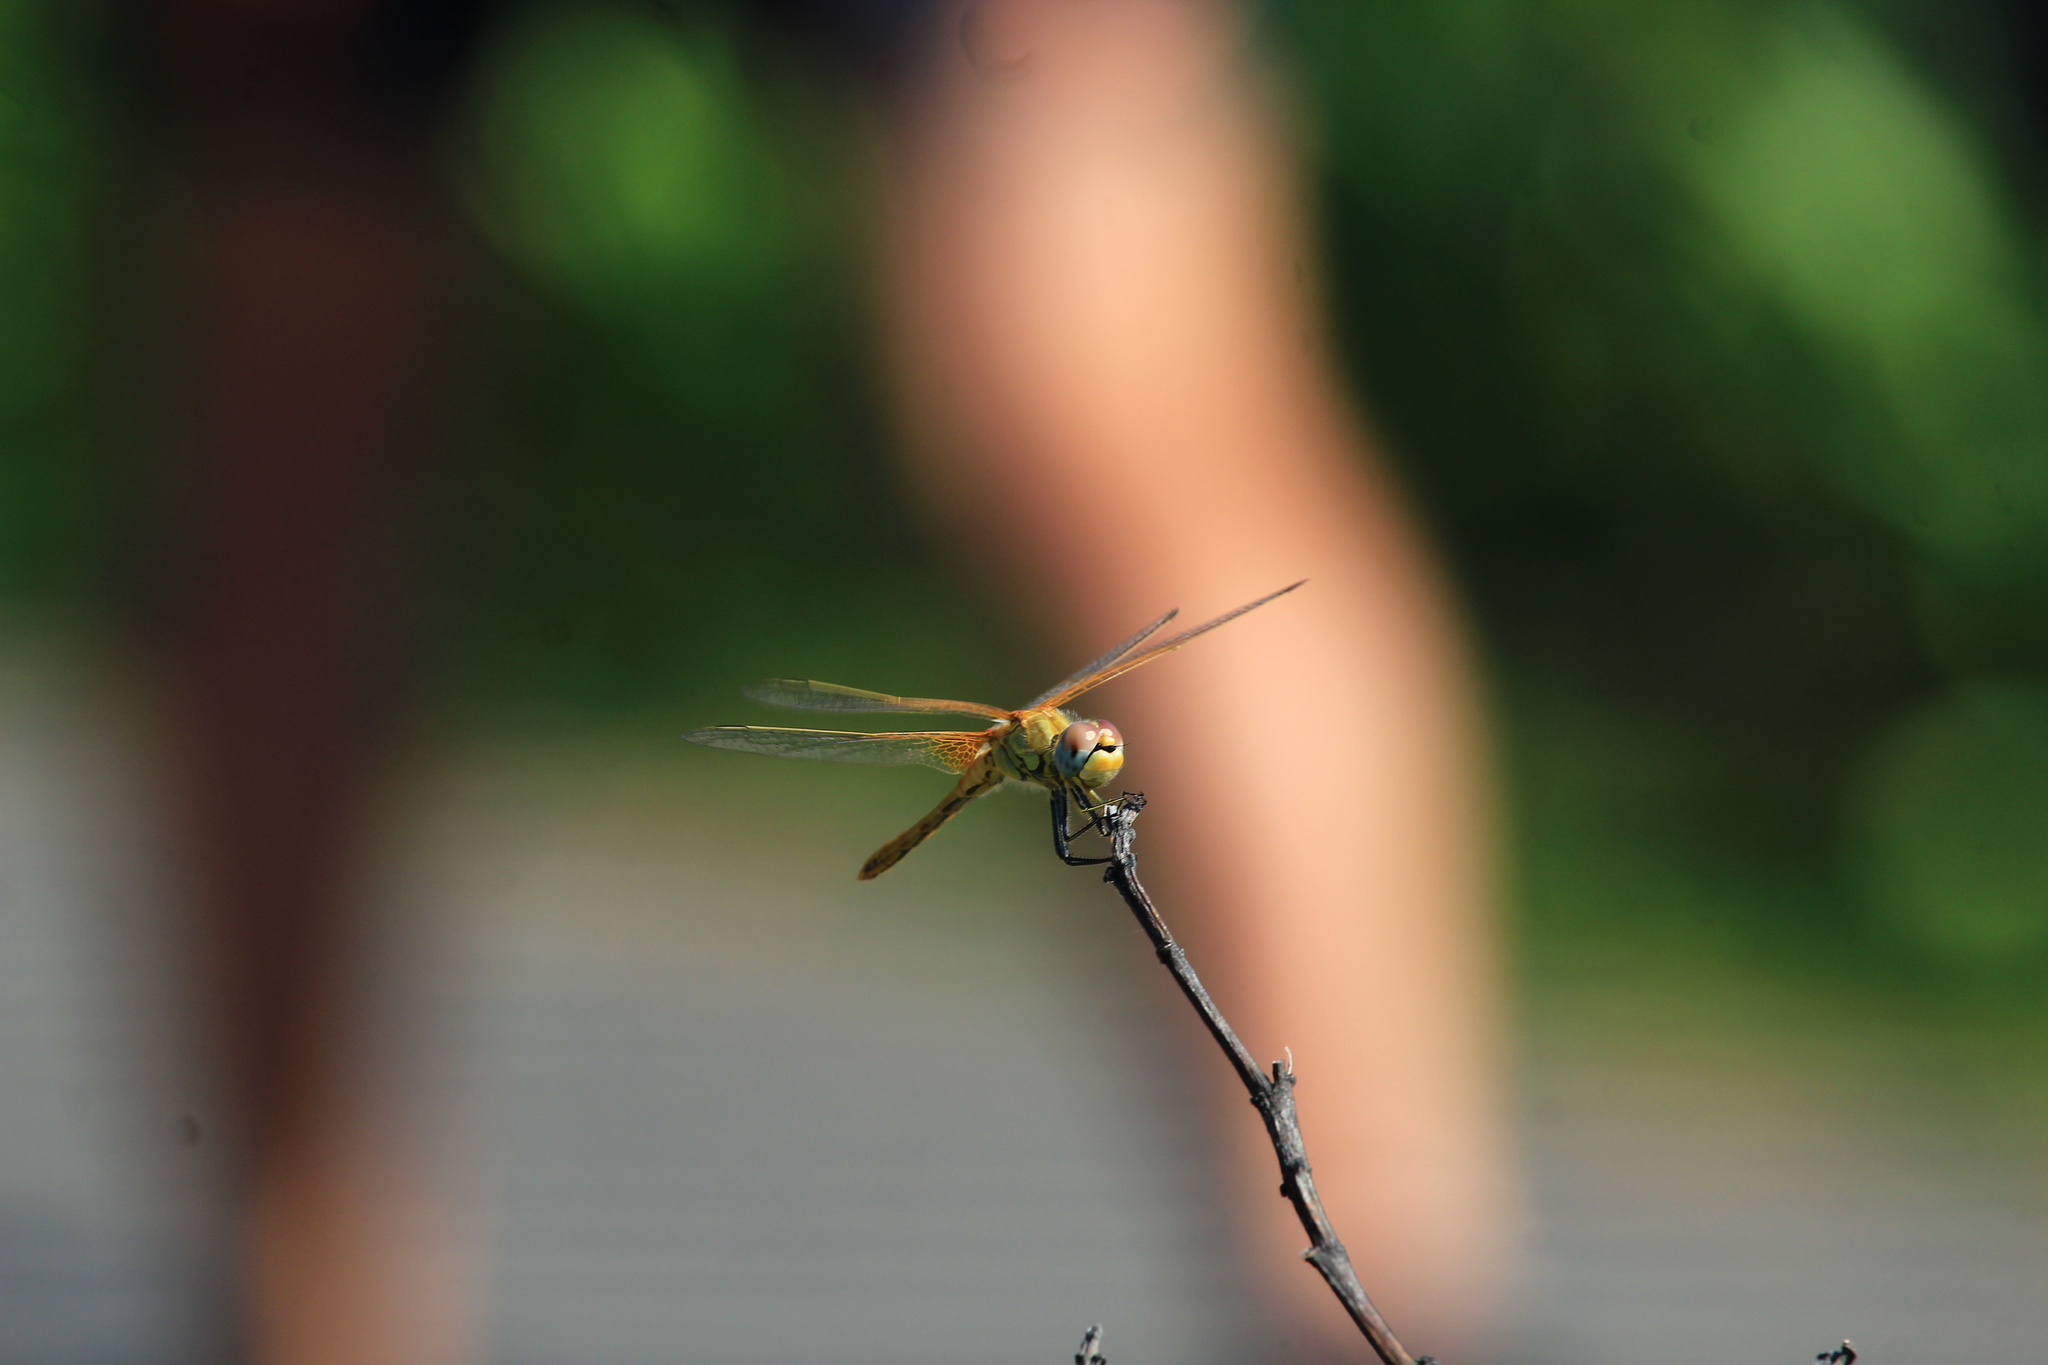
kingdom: Animalia
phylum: Arthropoda
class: Insecta
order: Odonata
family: Libellulidae
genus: Sympetrum
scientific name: Sympetrum fonscolombii
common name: Red-veined darter
